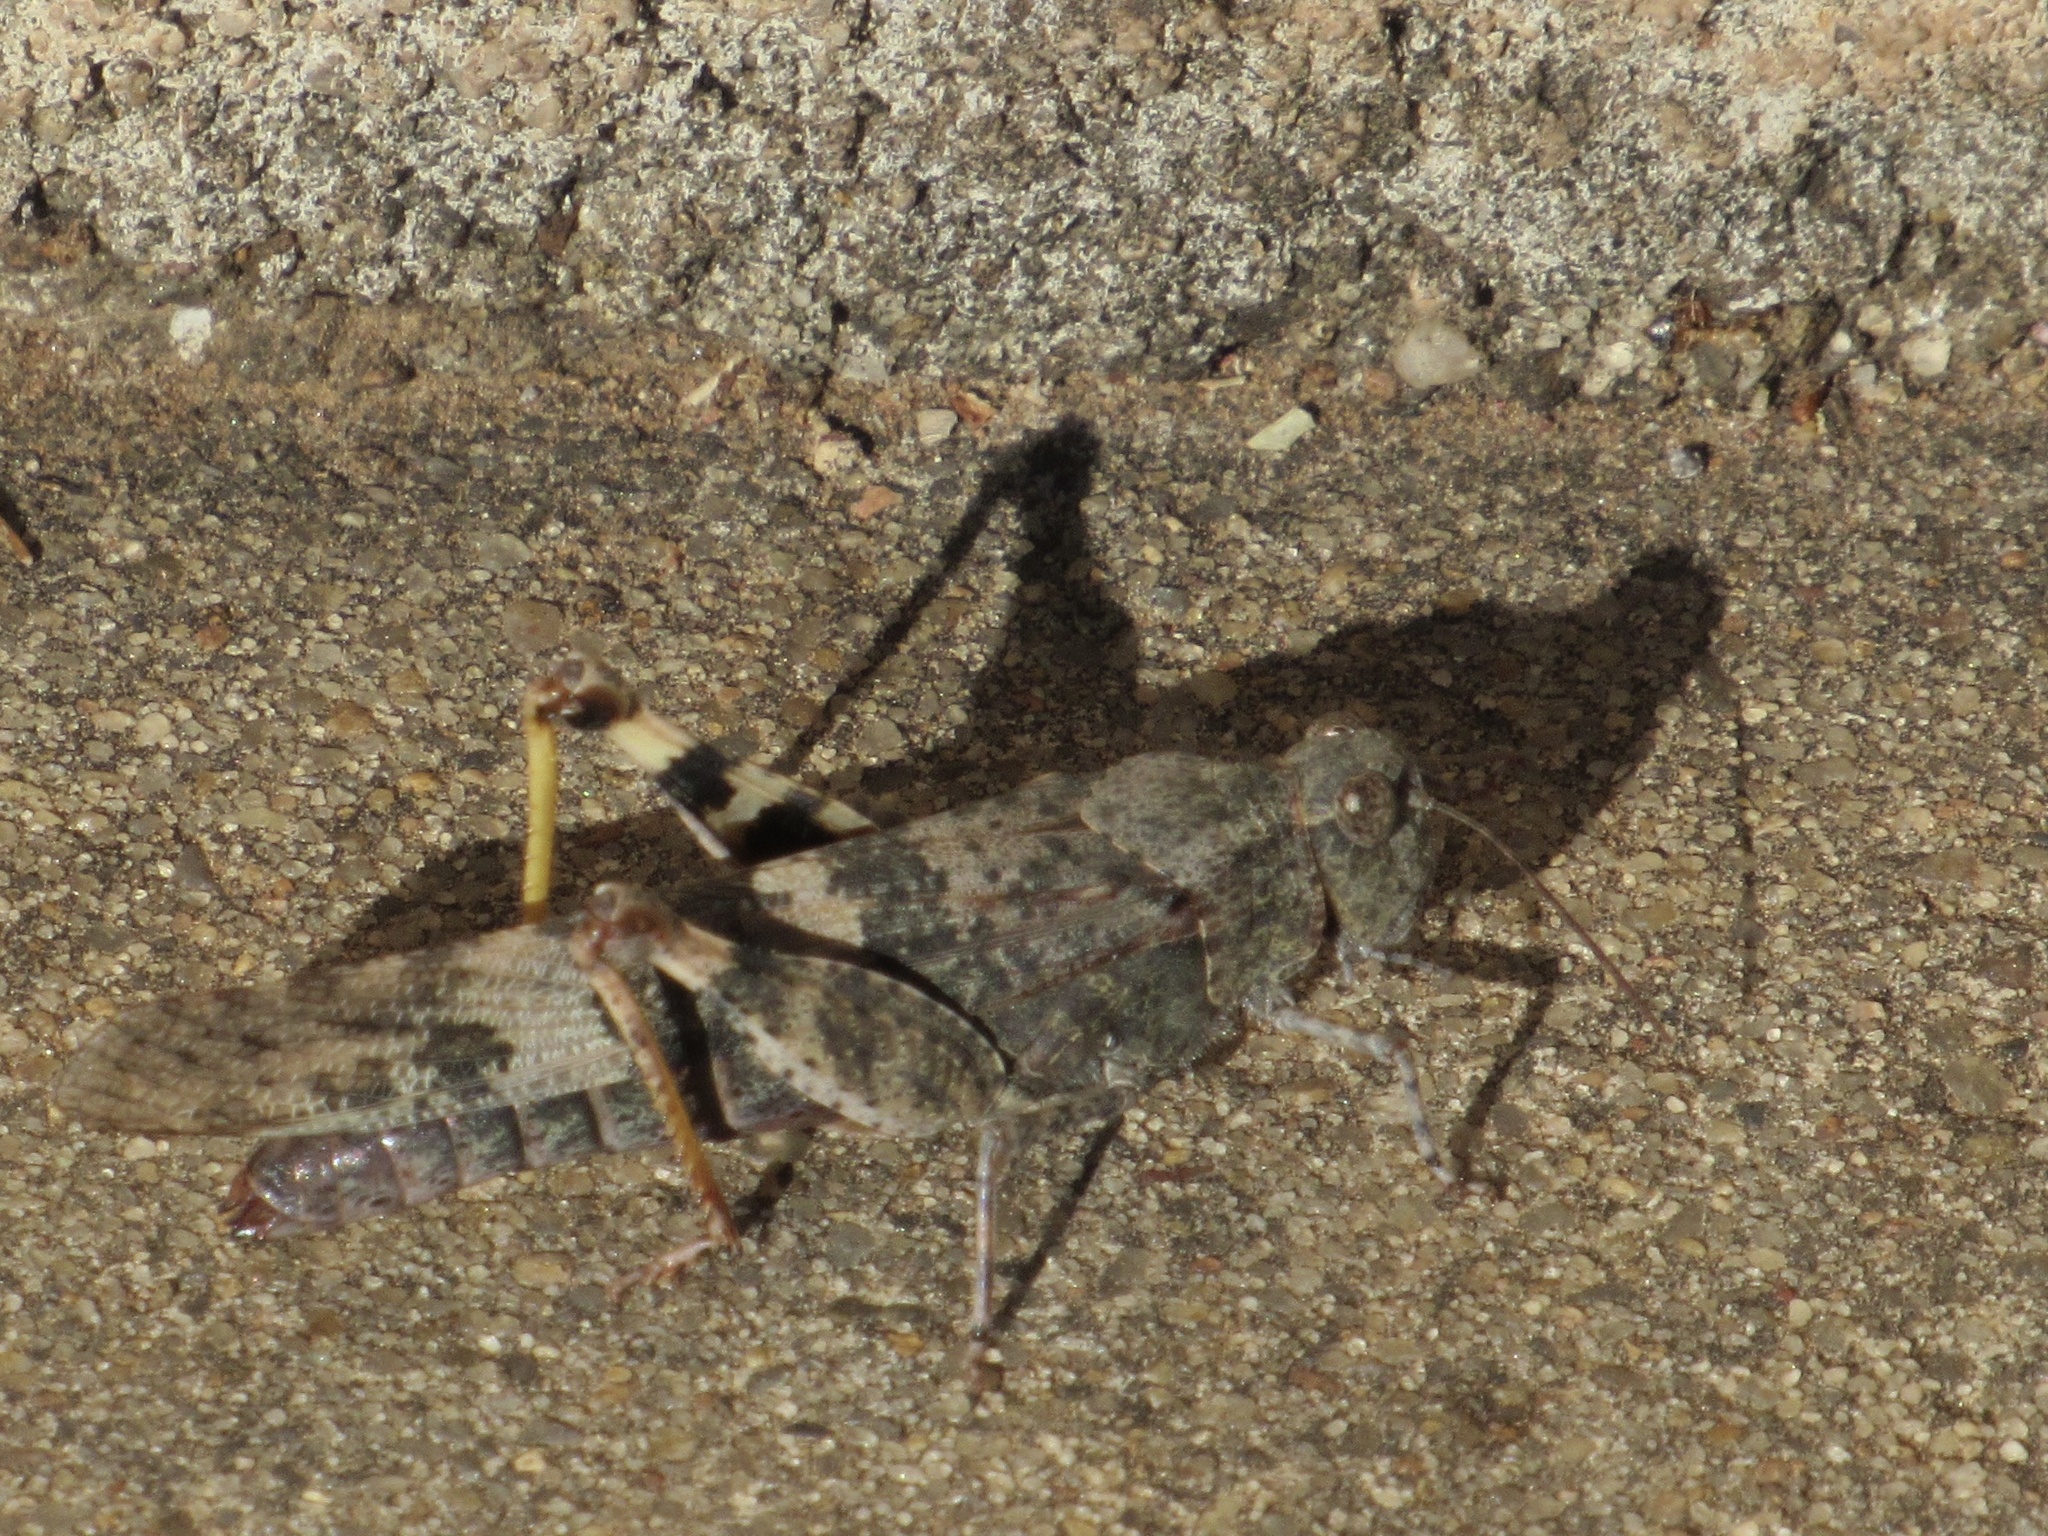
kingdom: Animalia
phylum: Arthropoda
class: Insecta
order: Orthoptera
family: Acrididae
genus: Trimerotropis
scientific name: Trimerotropis pallidipennis
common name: Pallid-winged grasshopper
